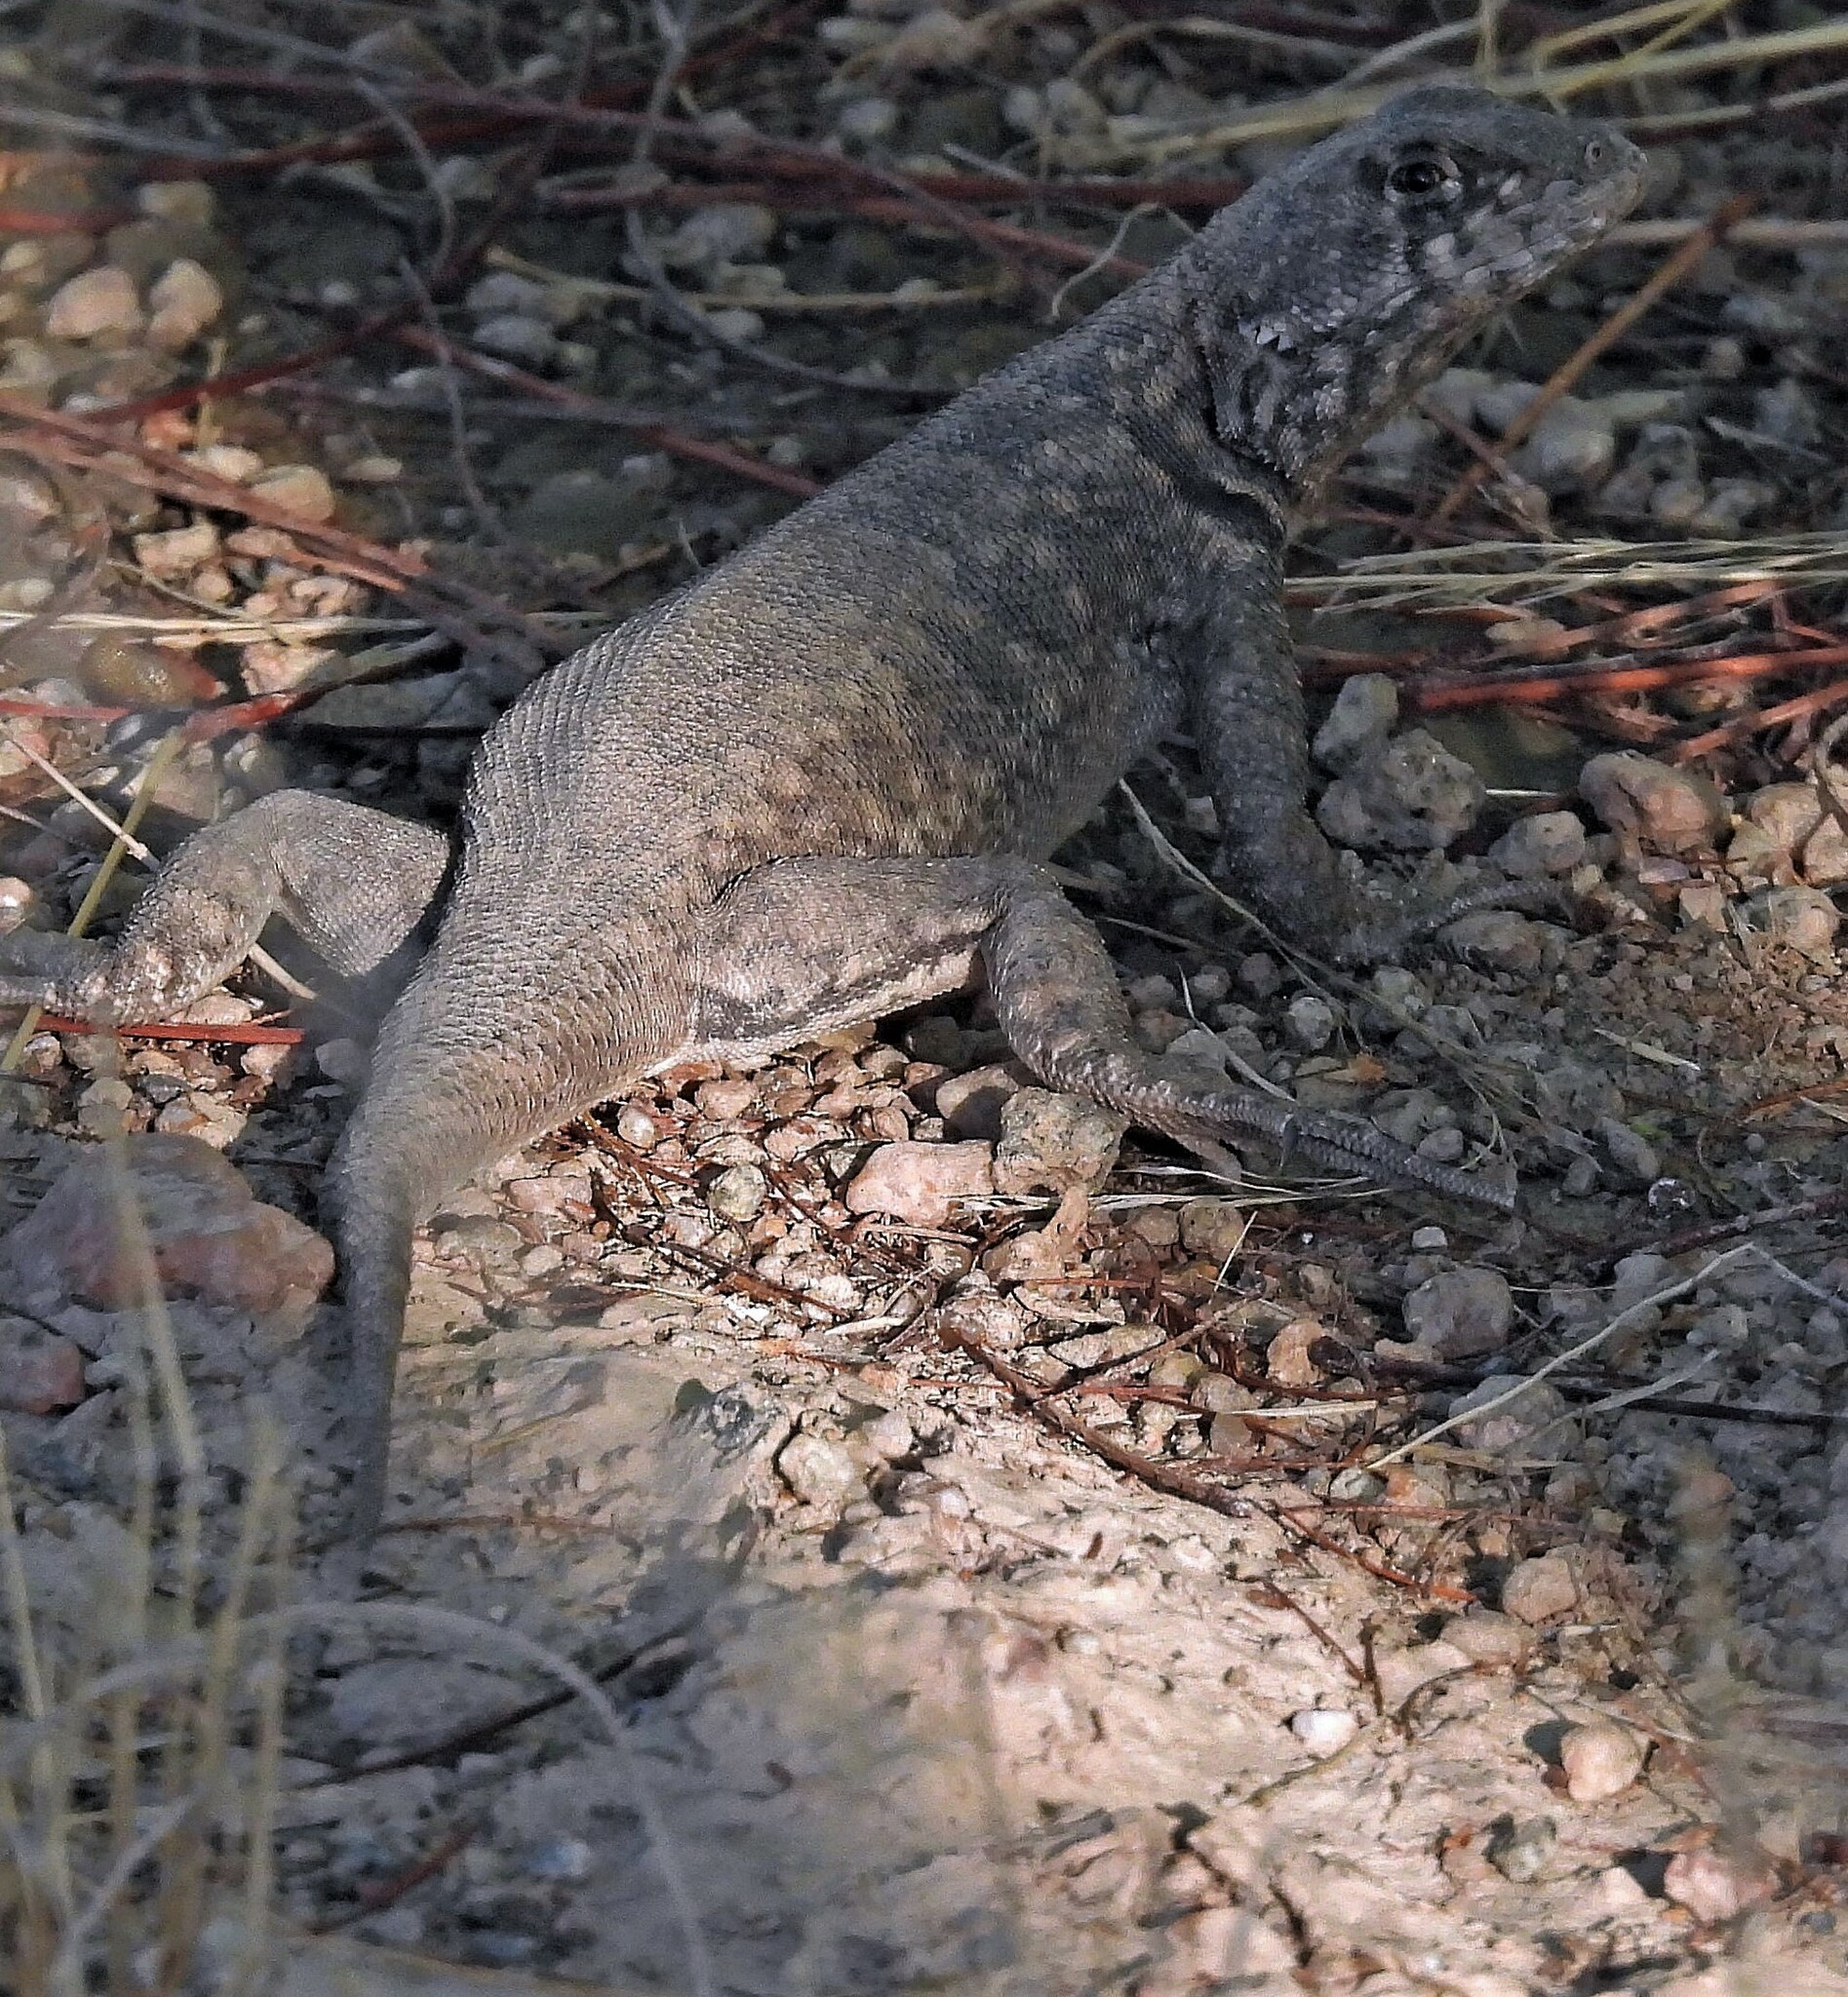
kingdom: Animalia
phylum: Chordata
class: Squamata
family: Tropiduridae
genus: Tropidurus
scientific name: Tropidurus etheridgei
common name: Etheridge's lava lizard
